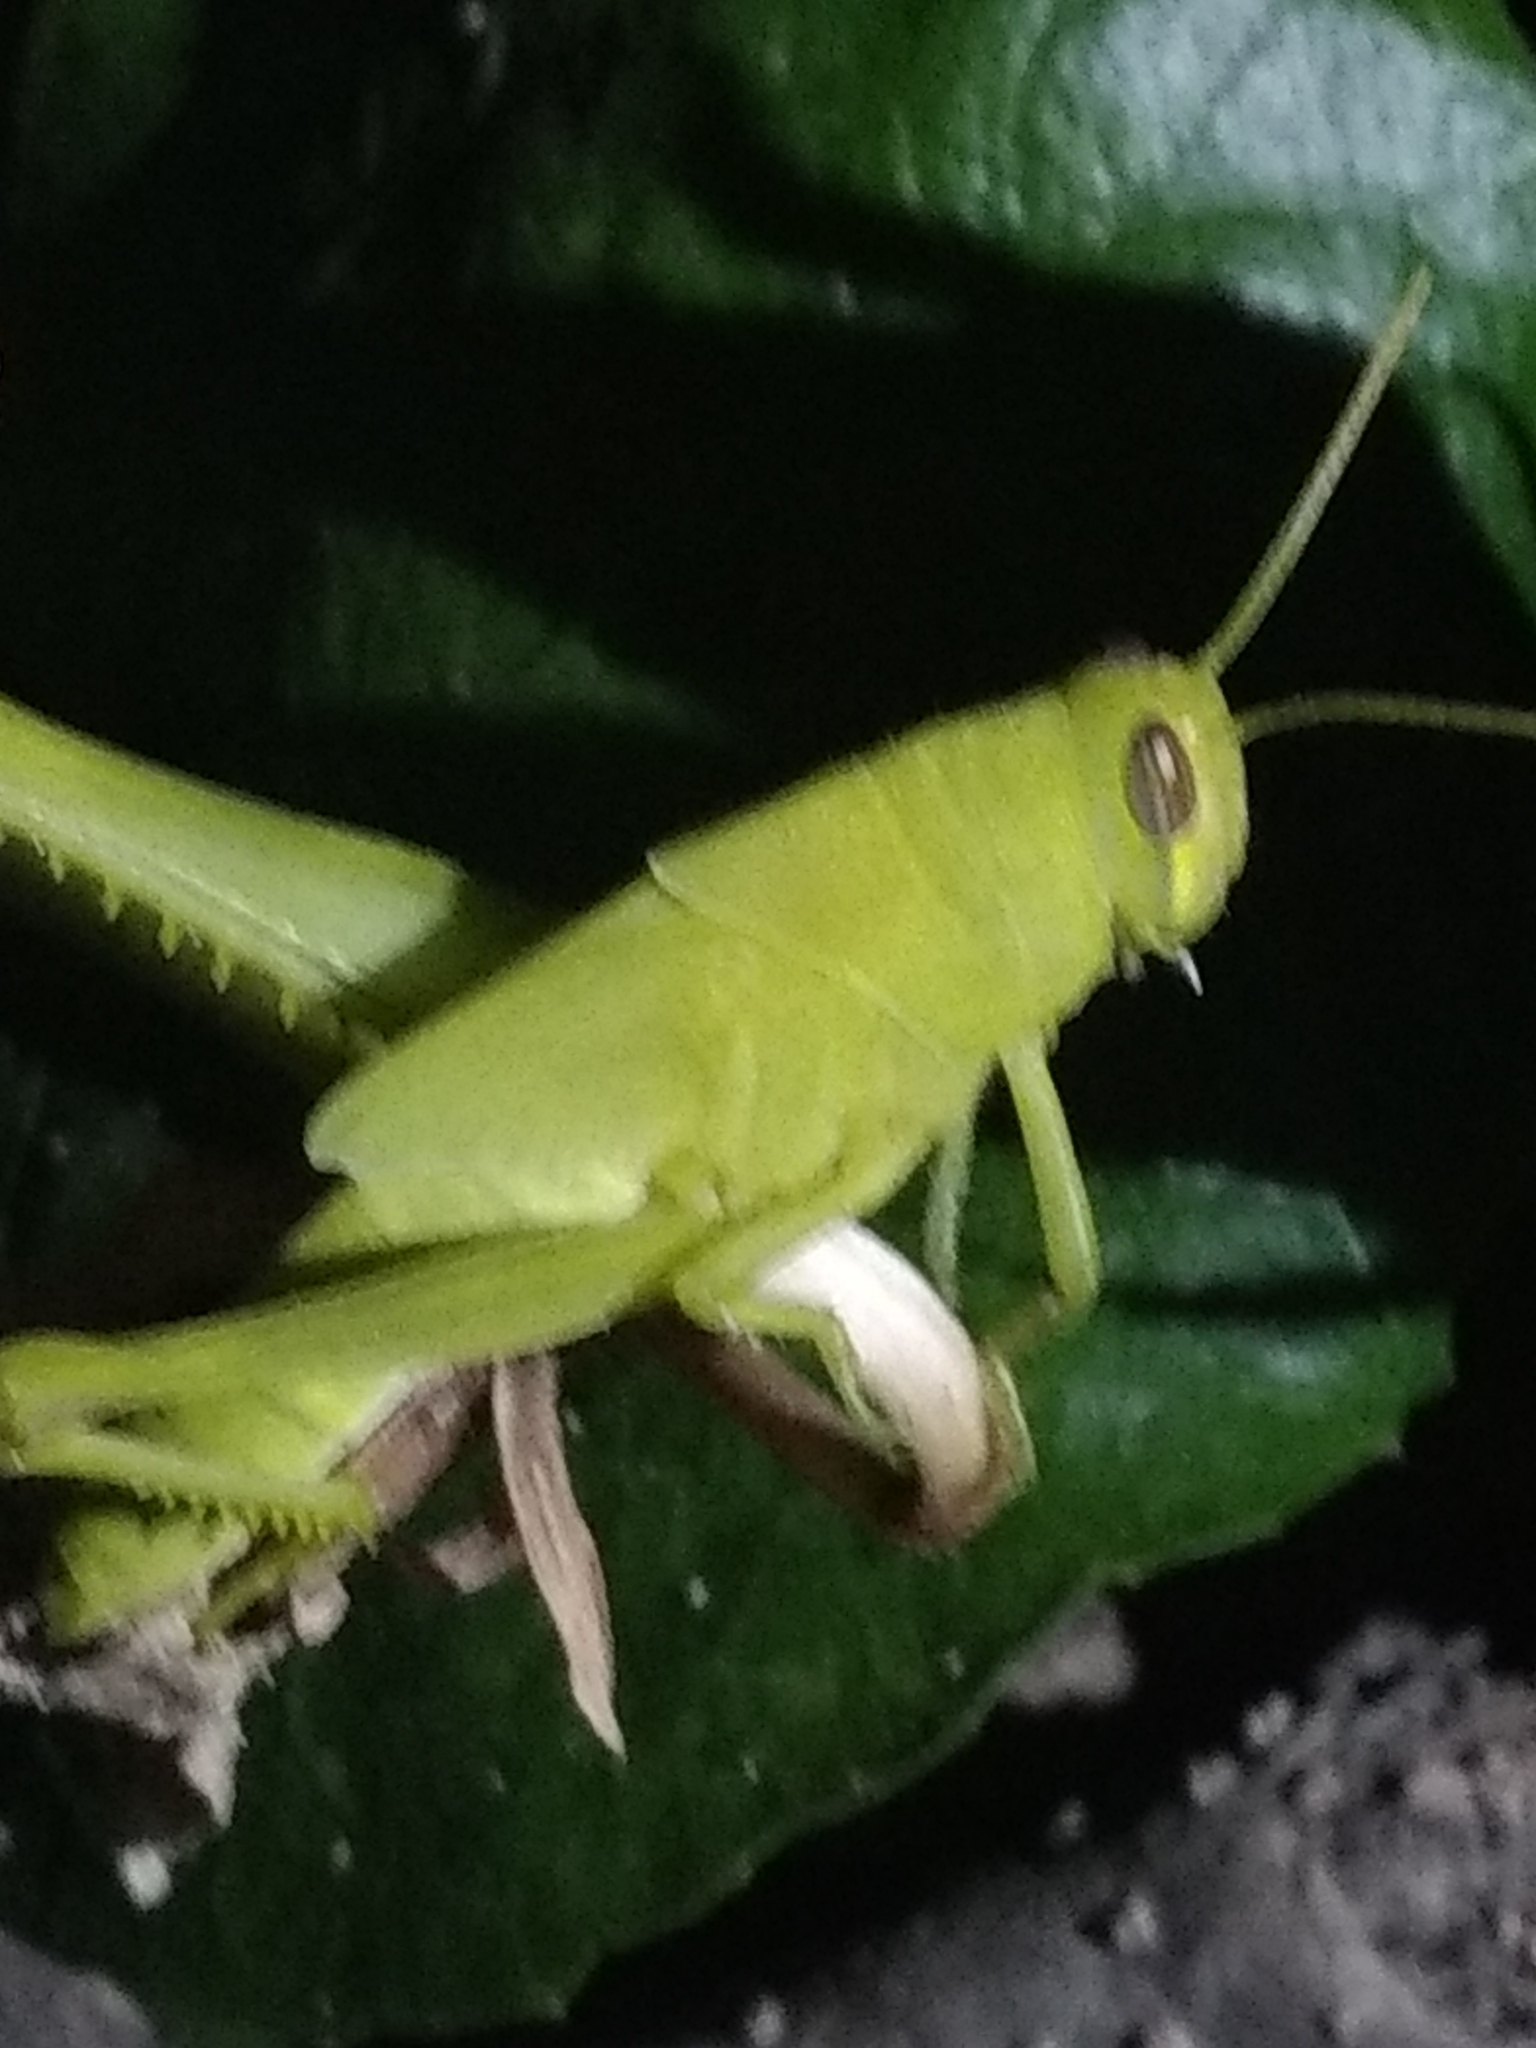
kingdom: Animalia
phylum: Arthropoda
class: Insecta
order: Orthoptera
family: Acrididae
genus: Schistocerca
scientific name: Schistocerca nitens
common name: Vagrant grasshopper
